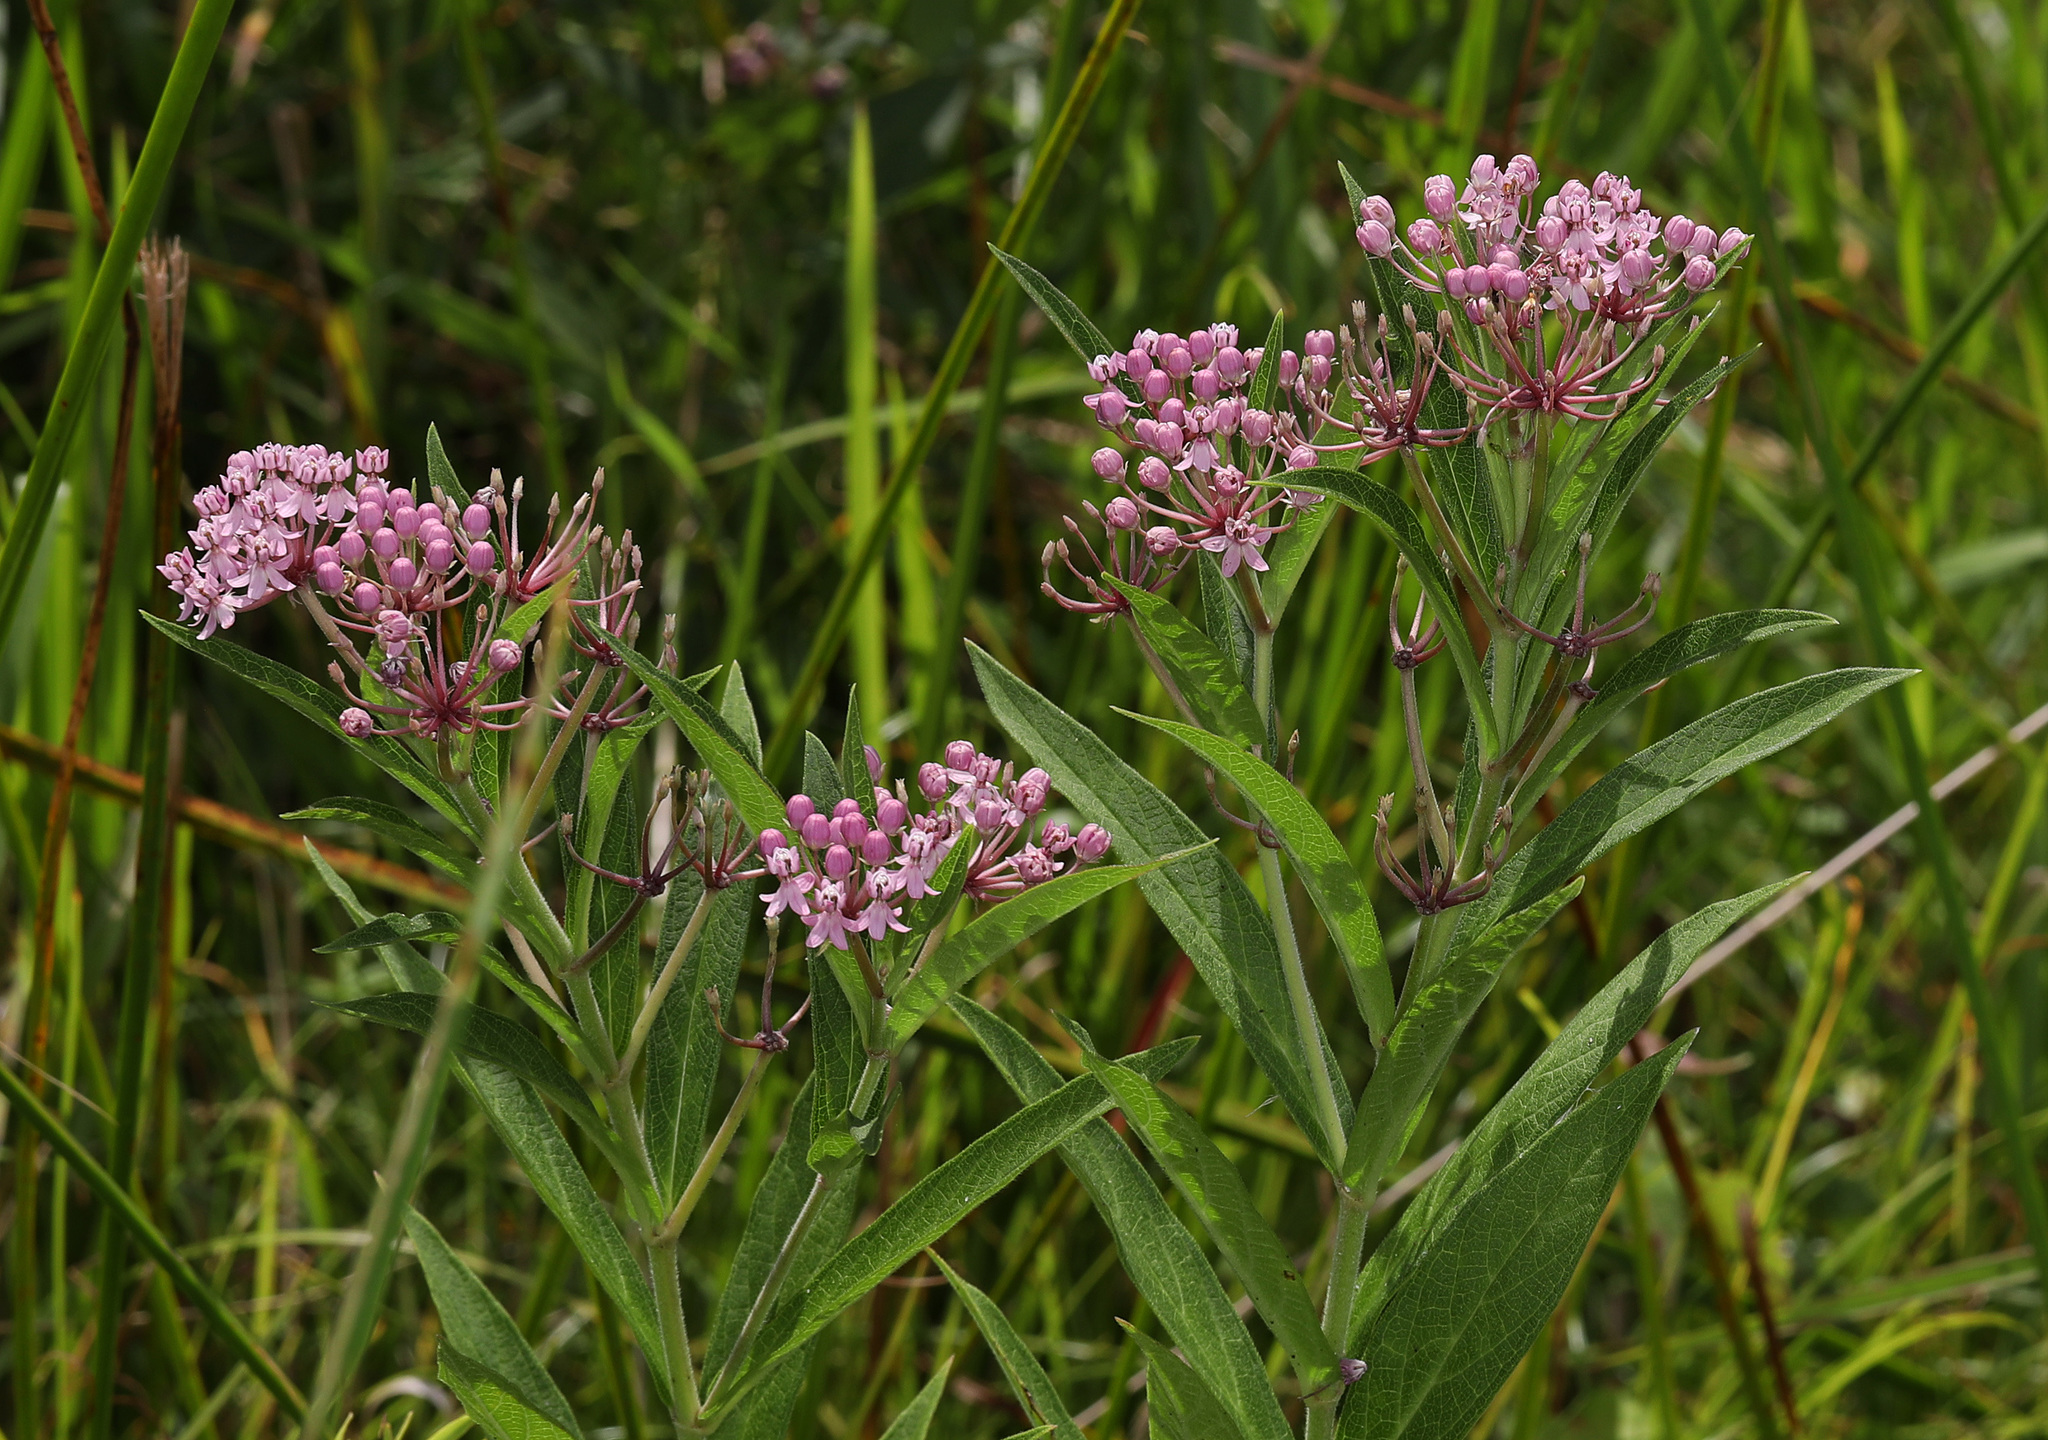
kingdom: Plantae
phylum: Tracheophyta
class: Magnoliopsida
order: Gentianales
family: Apocynaceae
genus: Asclepias
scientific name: Asclepias incarnata
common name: Swamp milkweed
